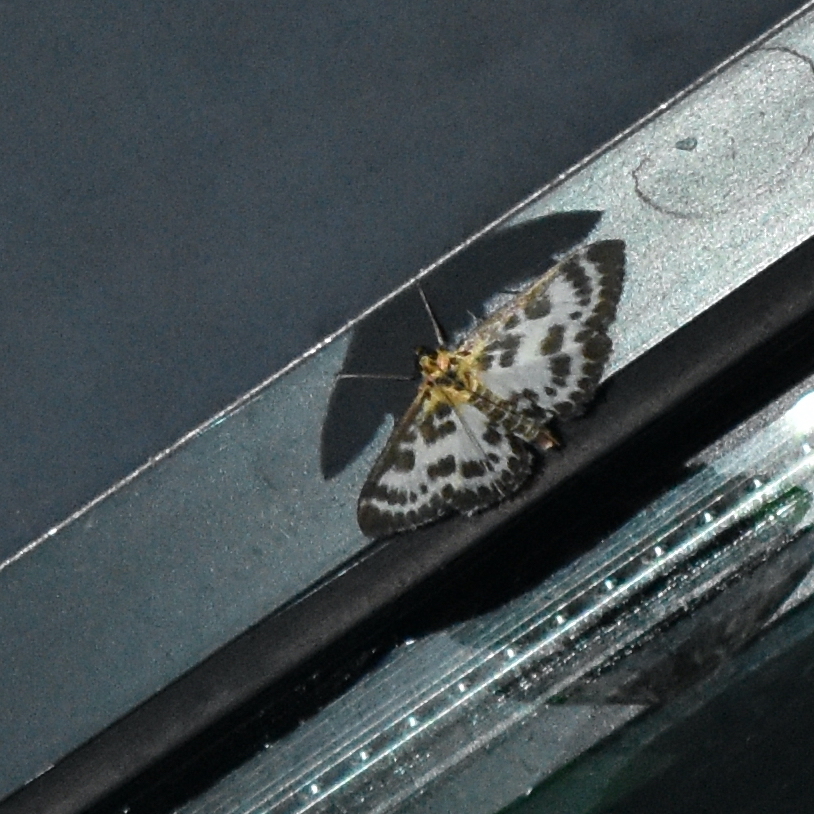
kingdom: Animalia
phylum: Arthropoda
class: Insecta
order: Lepidoptera
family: Crambidae
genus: Anania
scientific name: Anania hortulata
